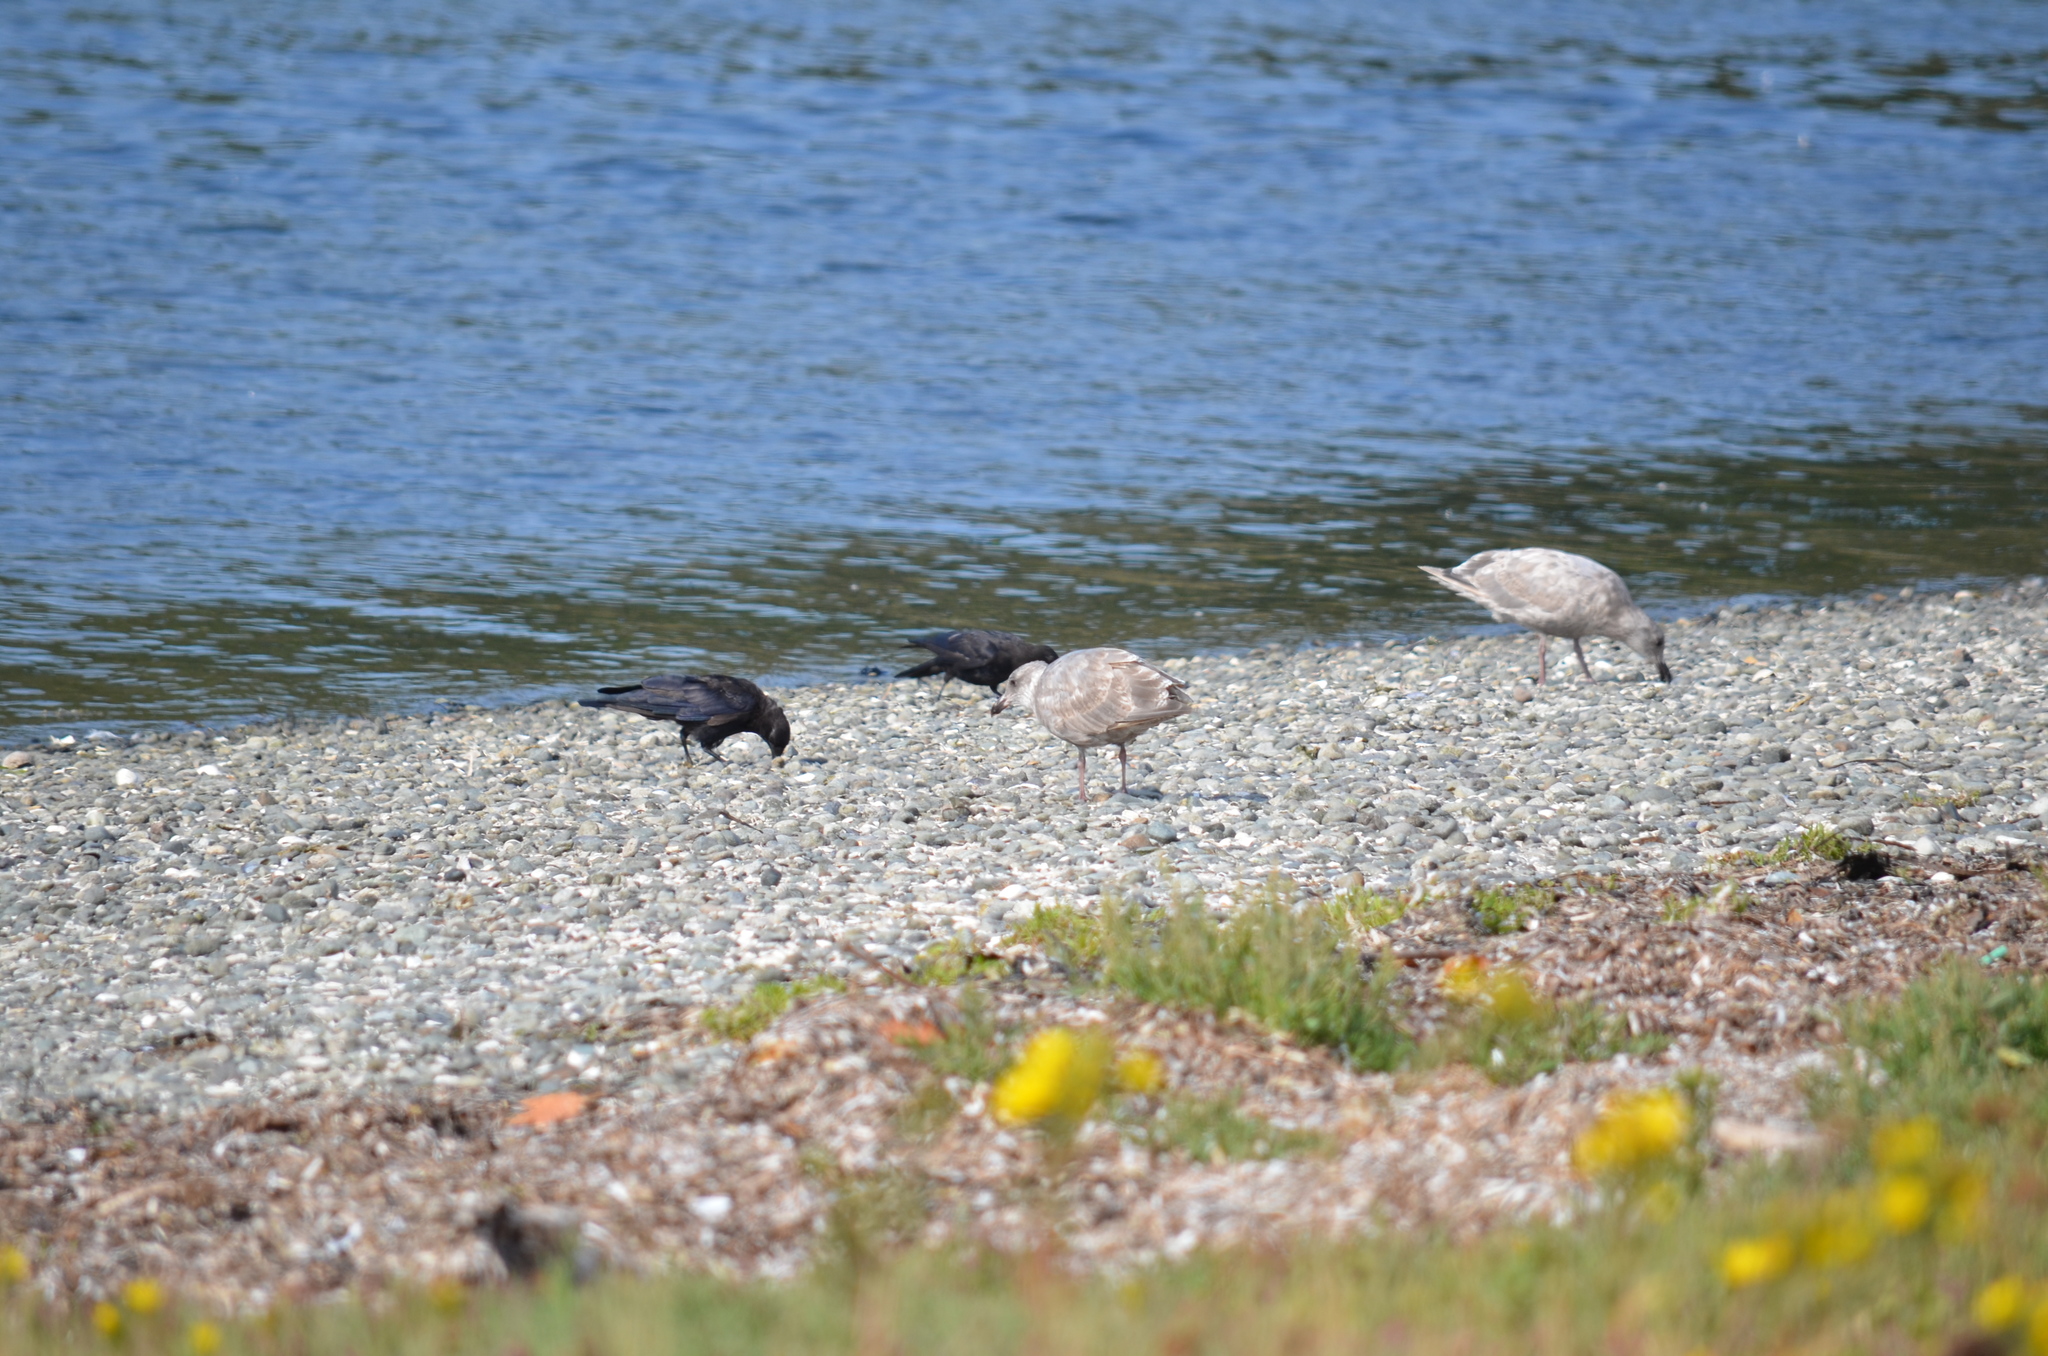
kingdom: Animalia
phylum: Chordata
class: Aves
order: Passeriformes
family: Corvidae
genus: Corvus
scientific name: Corvus brachyrhynchos
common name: American crow
